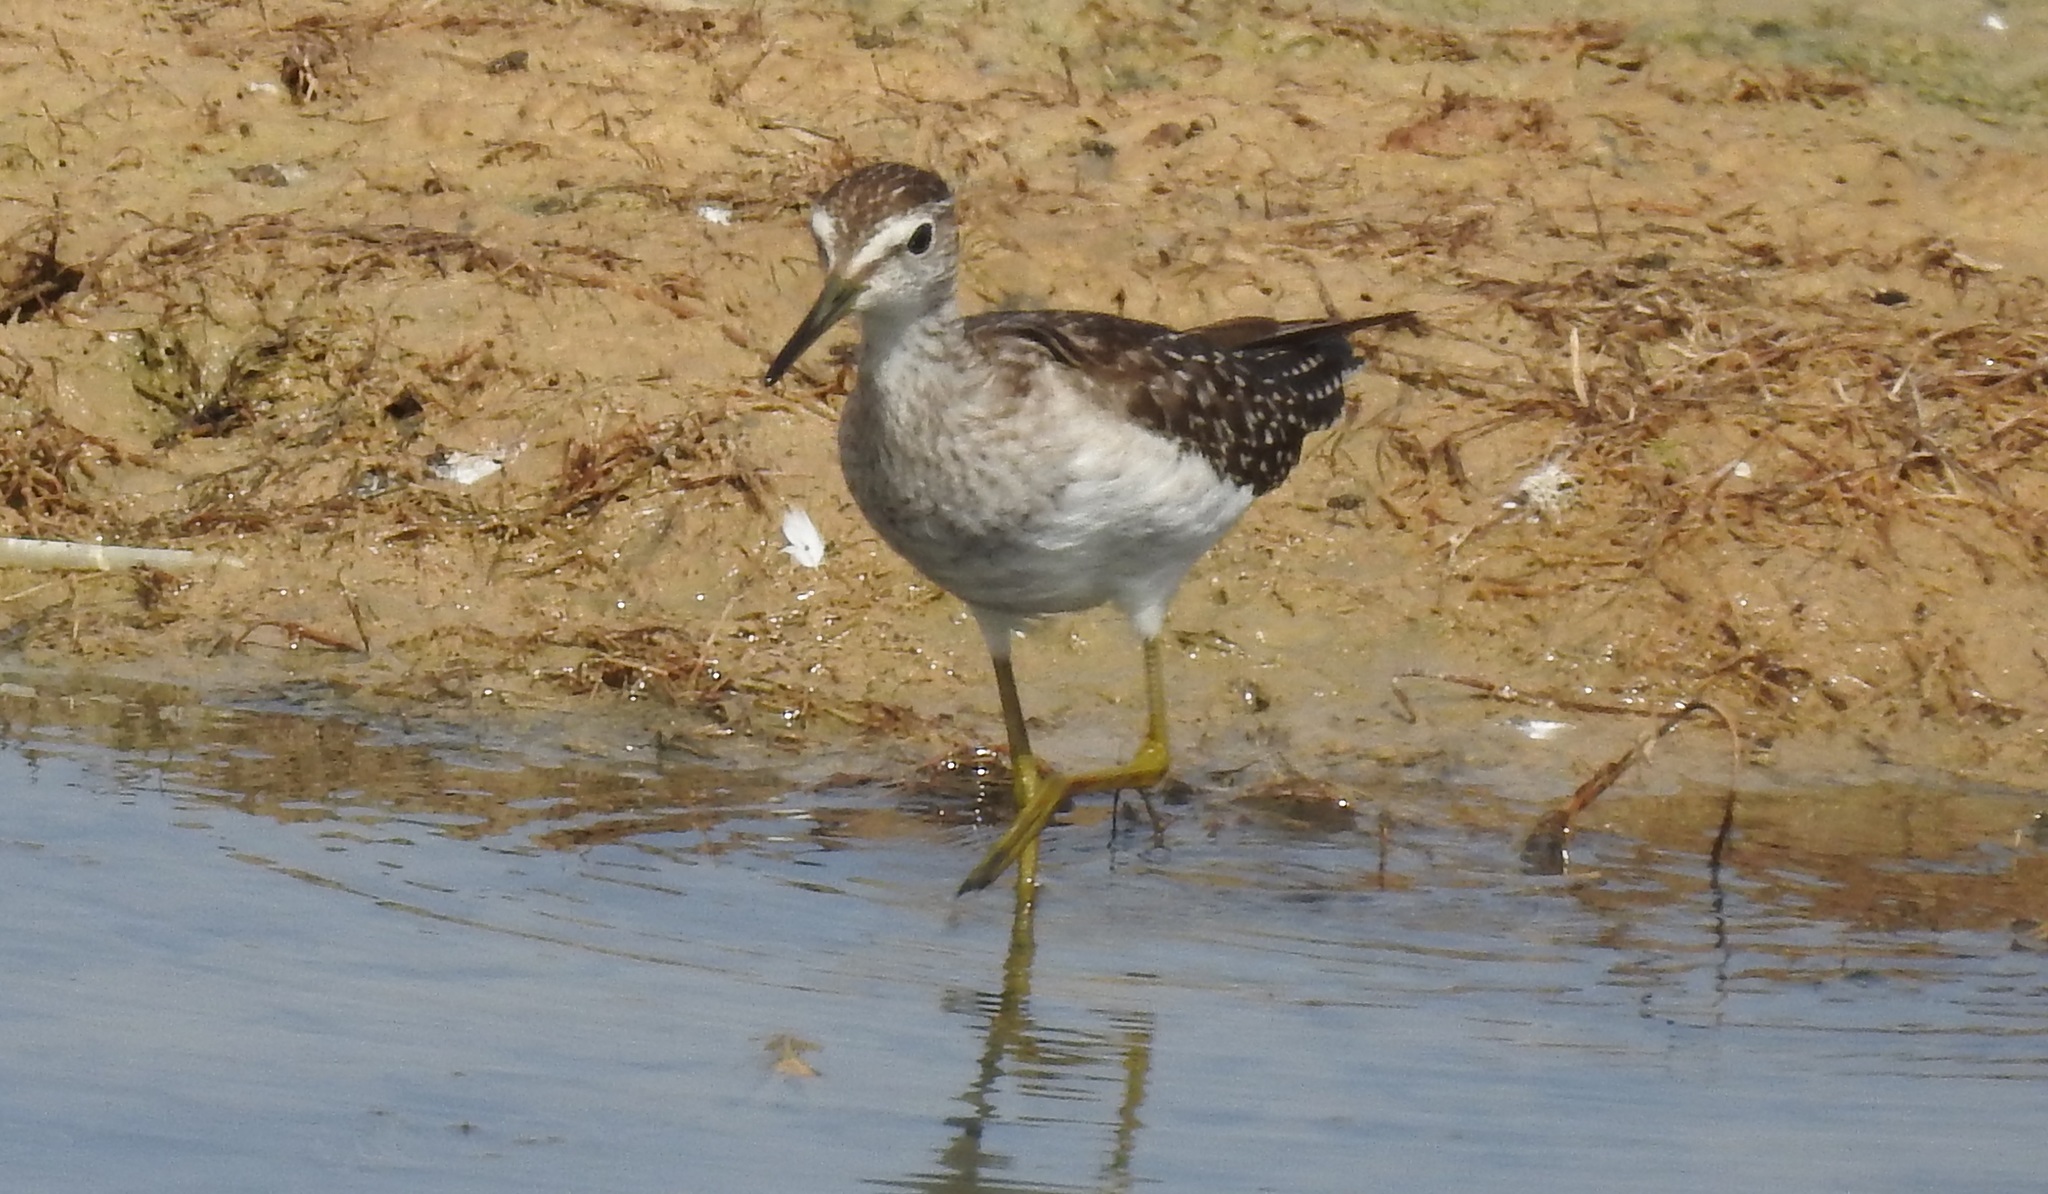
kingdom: Animalia
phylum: Chordata
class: Aves
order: Charadriiformes
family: Scolopacidae
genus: Tringa
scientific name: Tringa glareola
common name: Wood sandpiper
